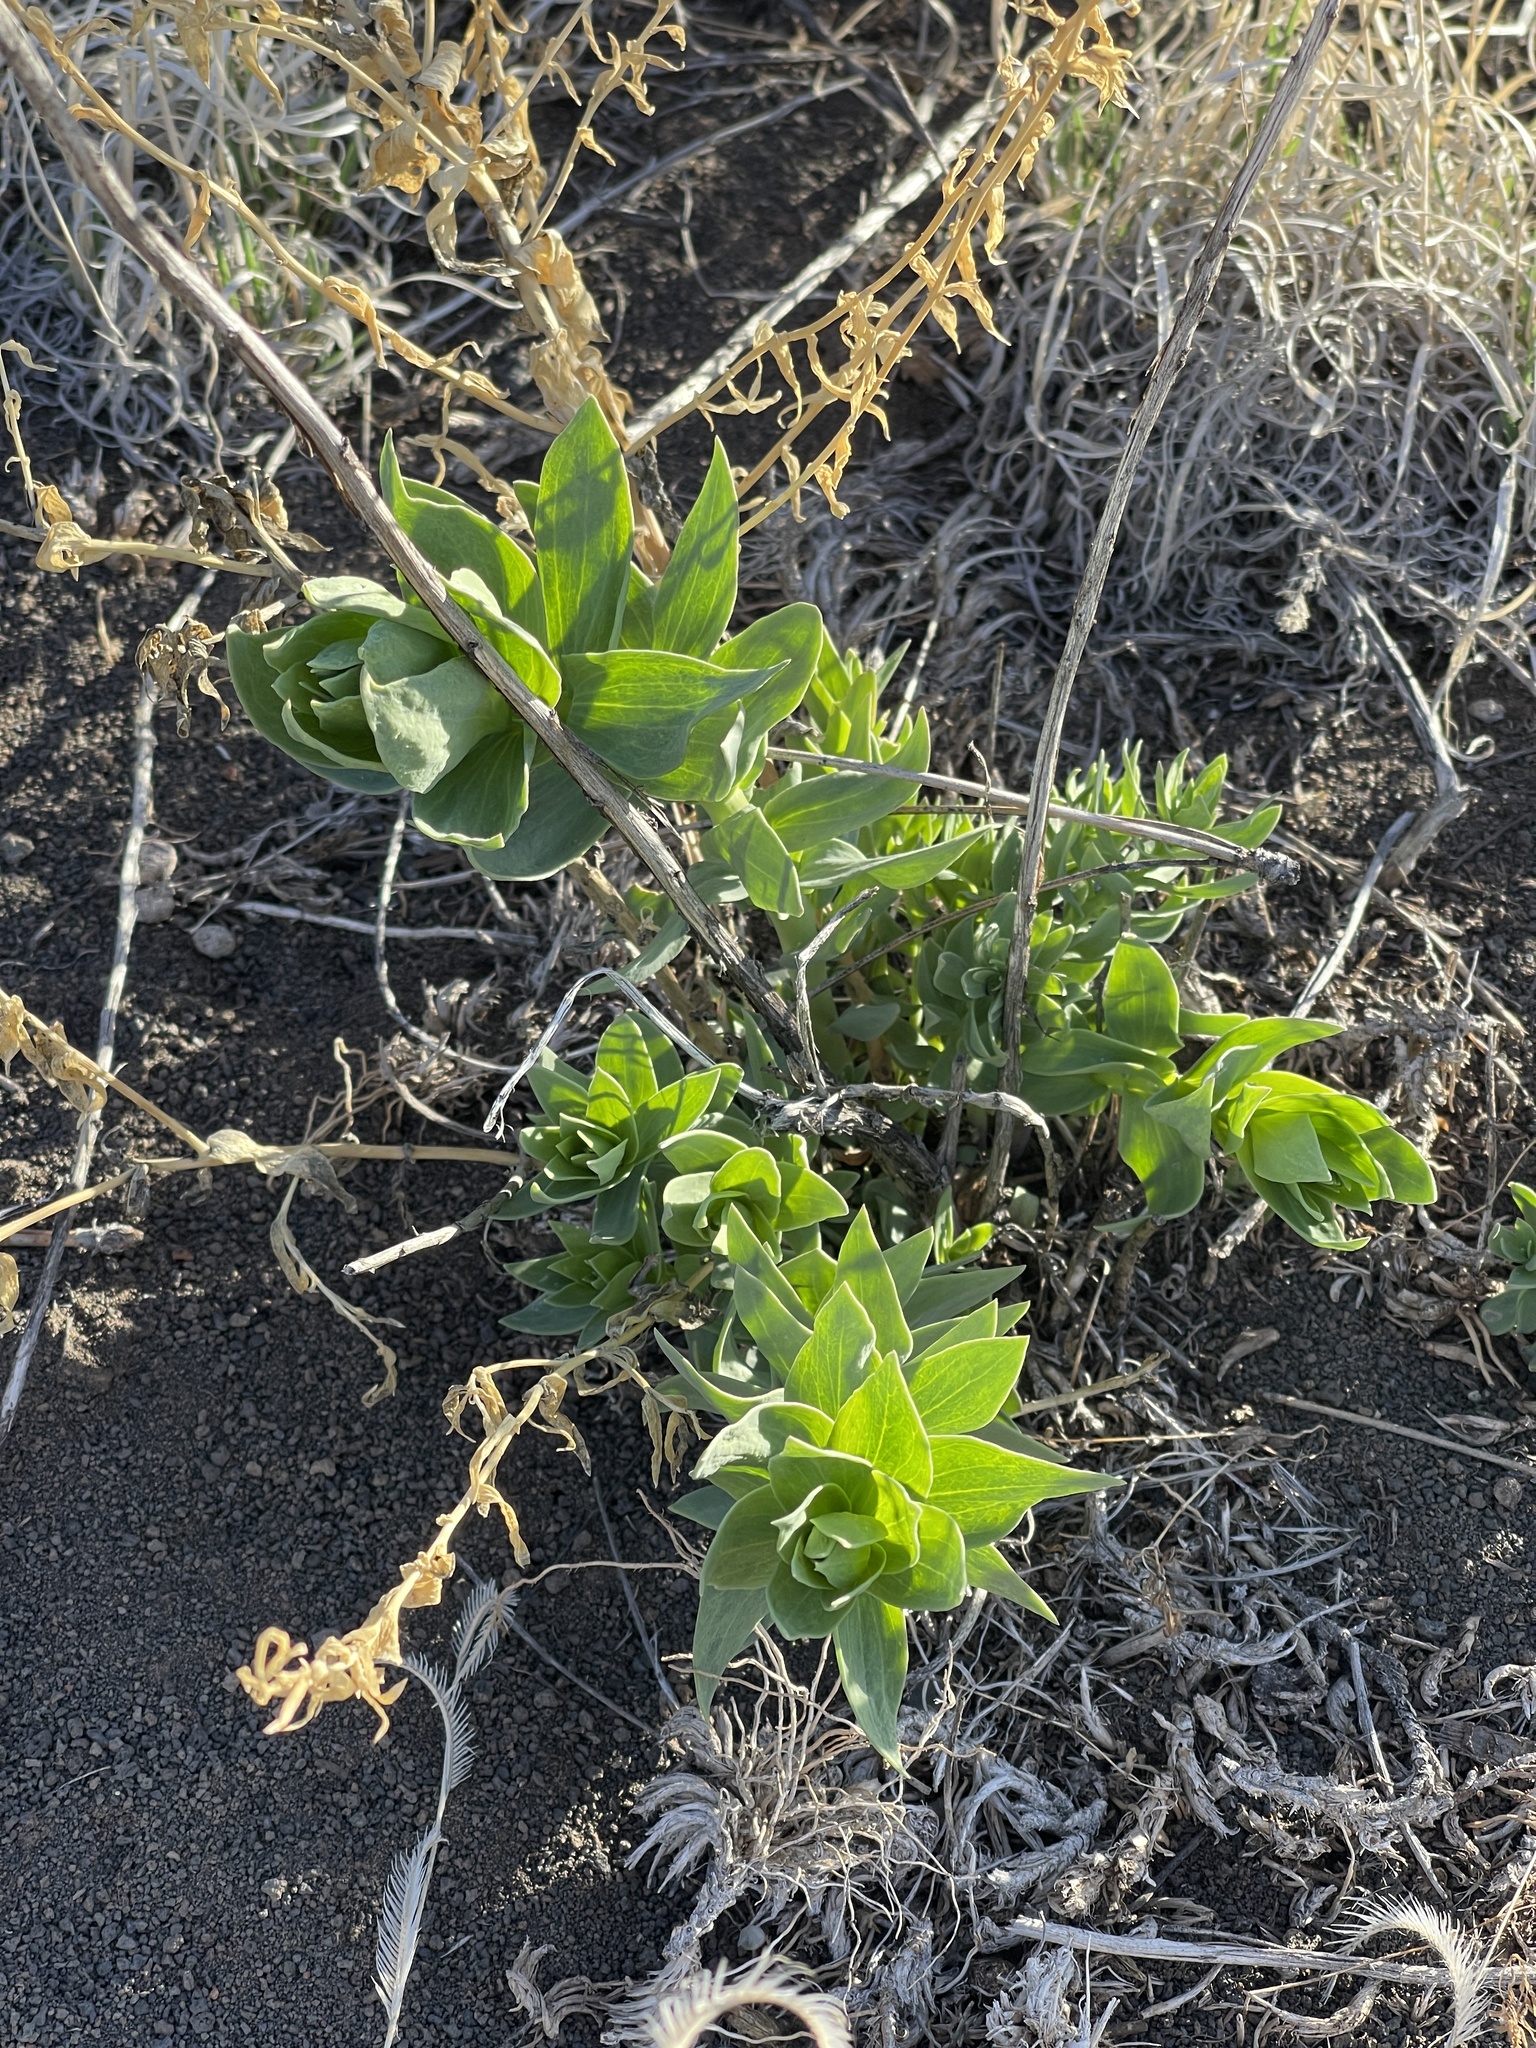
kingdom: Plantae
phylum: Tracheophyta
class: Magnoliopsida
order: Lamiales
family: Plantaginaceae
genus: Linaria
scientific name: Linaria dalmatica
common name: Dalmatian toadflax
